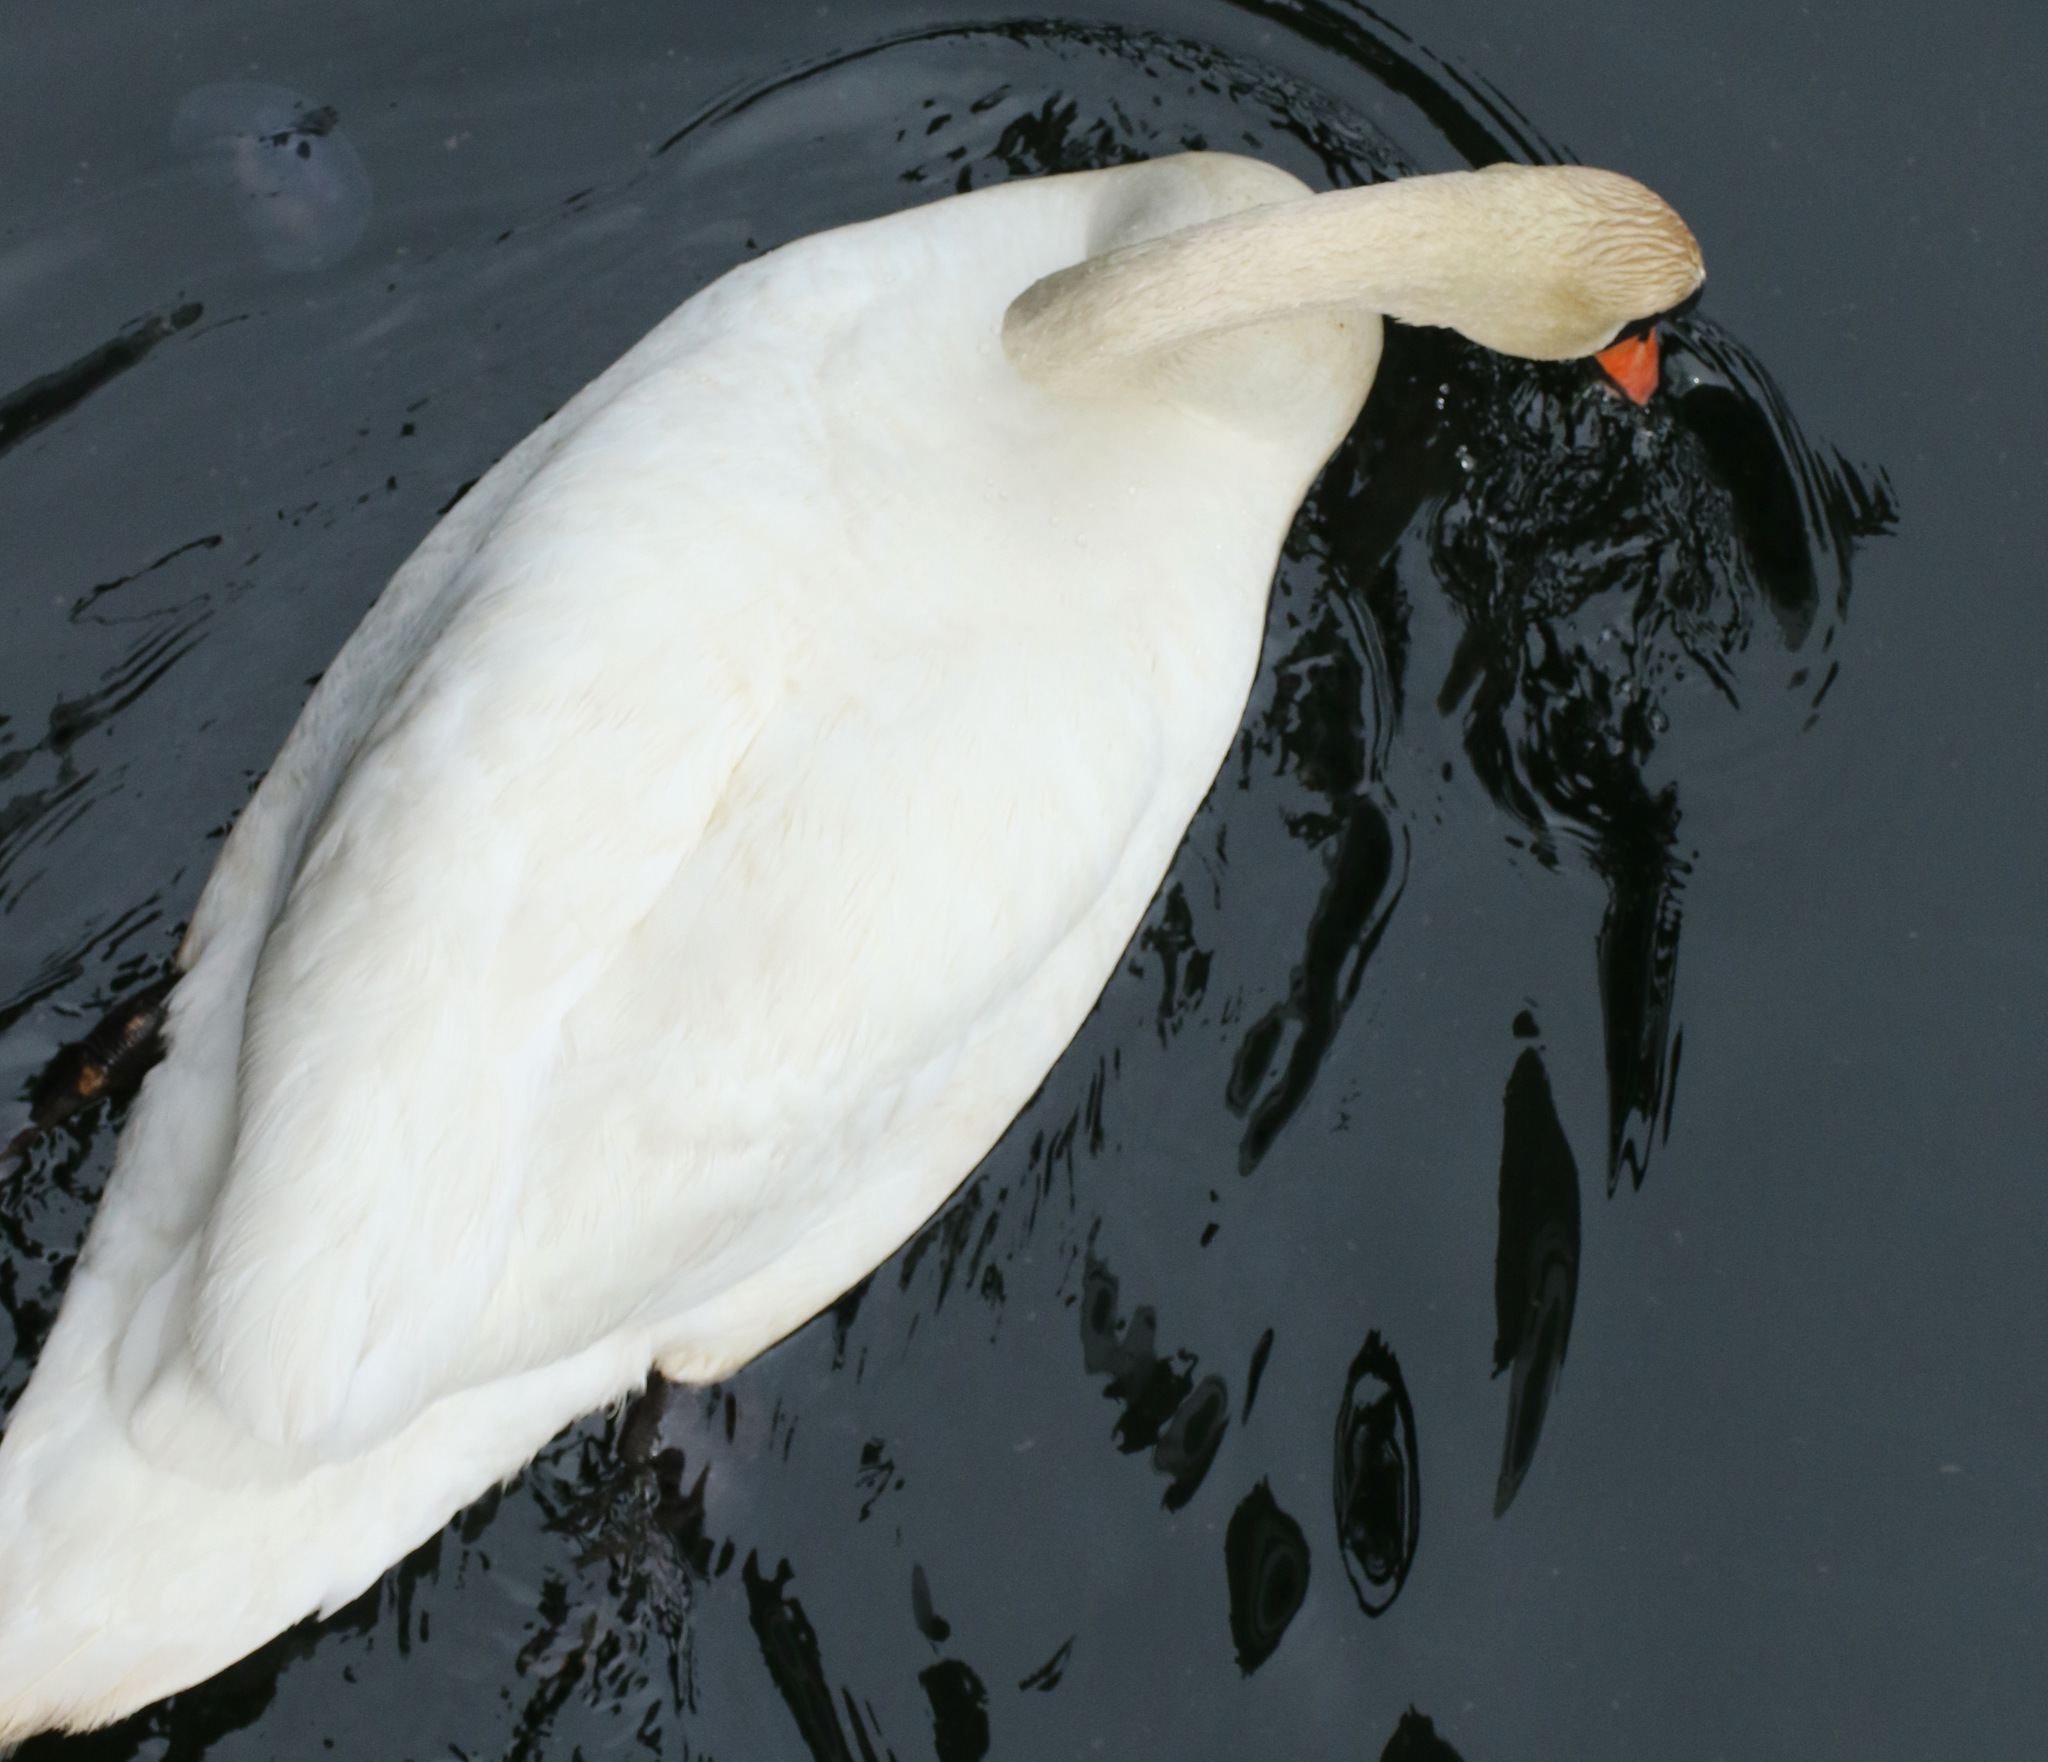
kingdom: Animalia
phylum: Chordata
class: Aves
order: Anseriformes
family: Anatidae
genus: Cygnus
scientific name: Cygnus olor
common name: Mute swan
